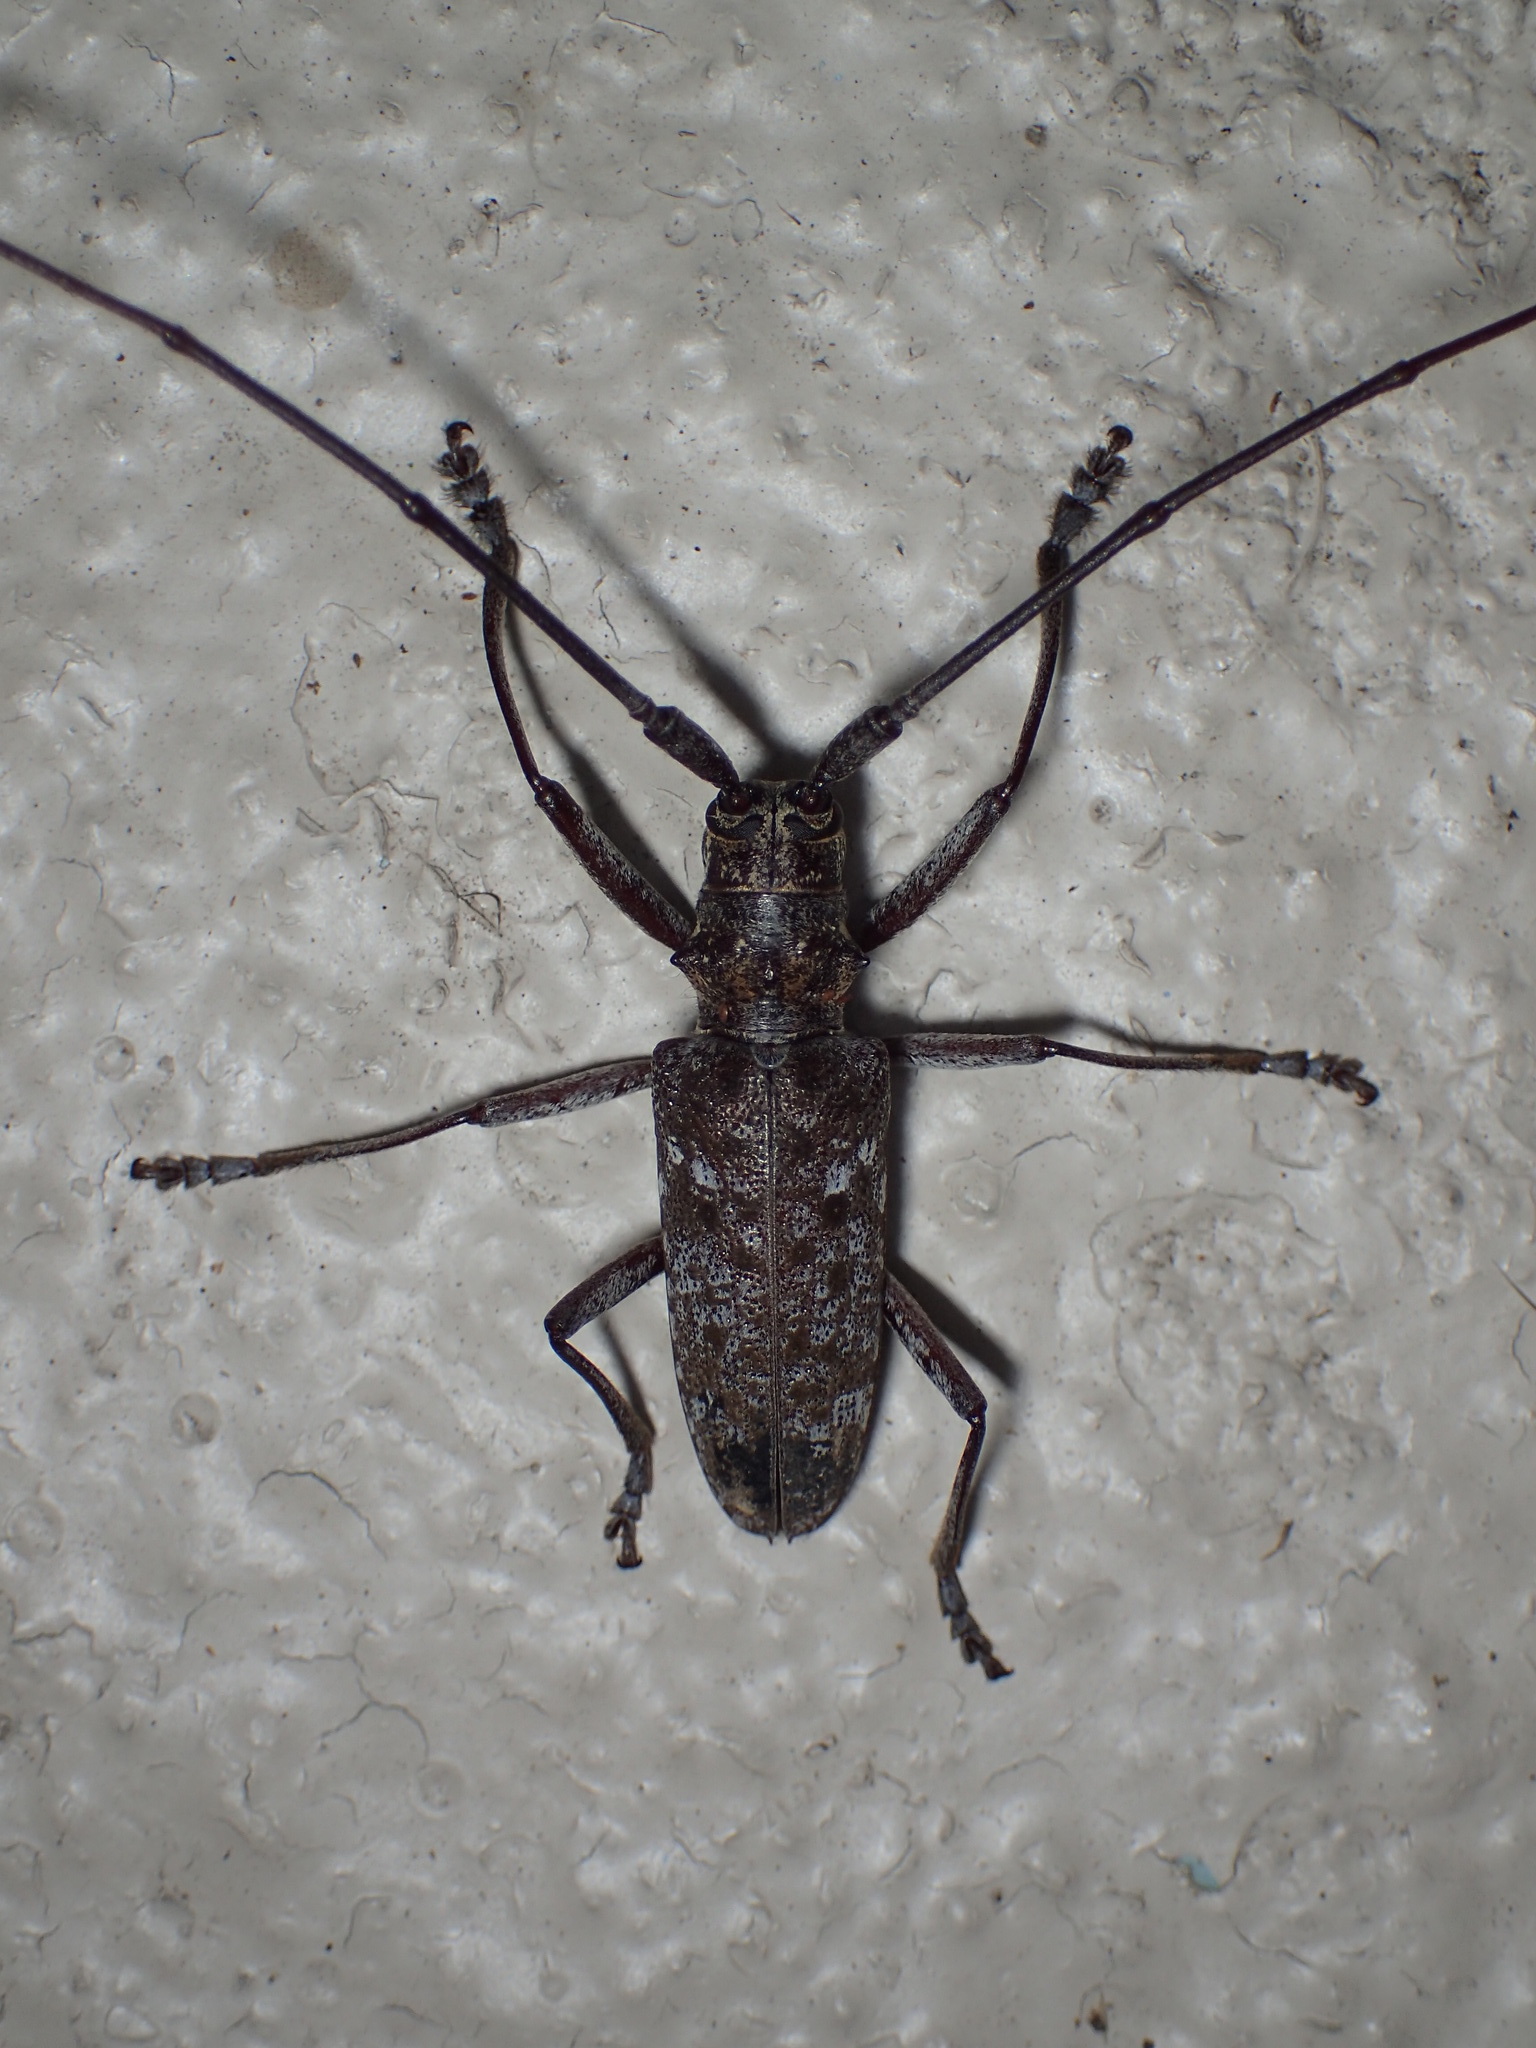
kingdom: Animalia
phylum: Arthropoda
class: Insecta
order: Coleoptera
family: Cerambycidae
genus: Monochamus
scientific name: Monochamus titillator
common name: Southern pine sawyer
